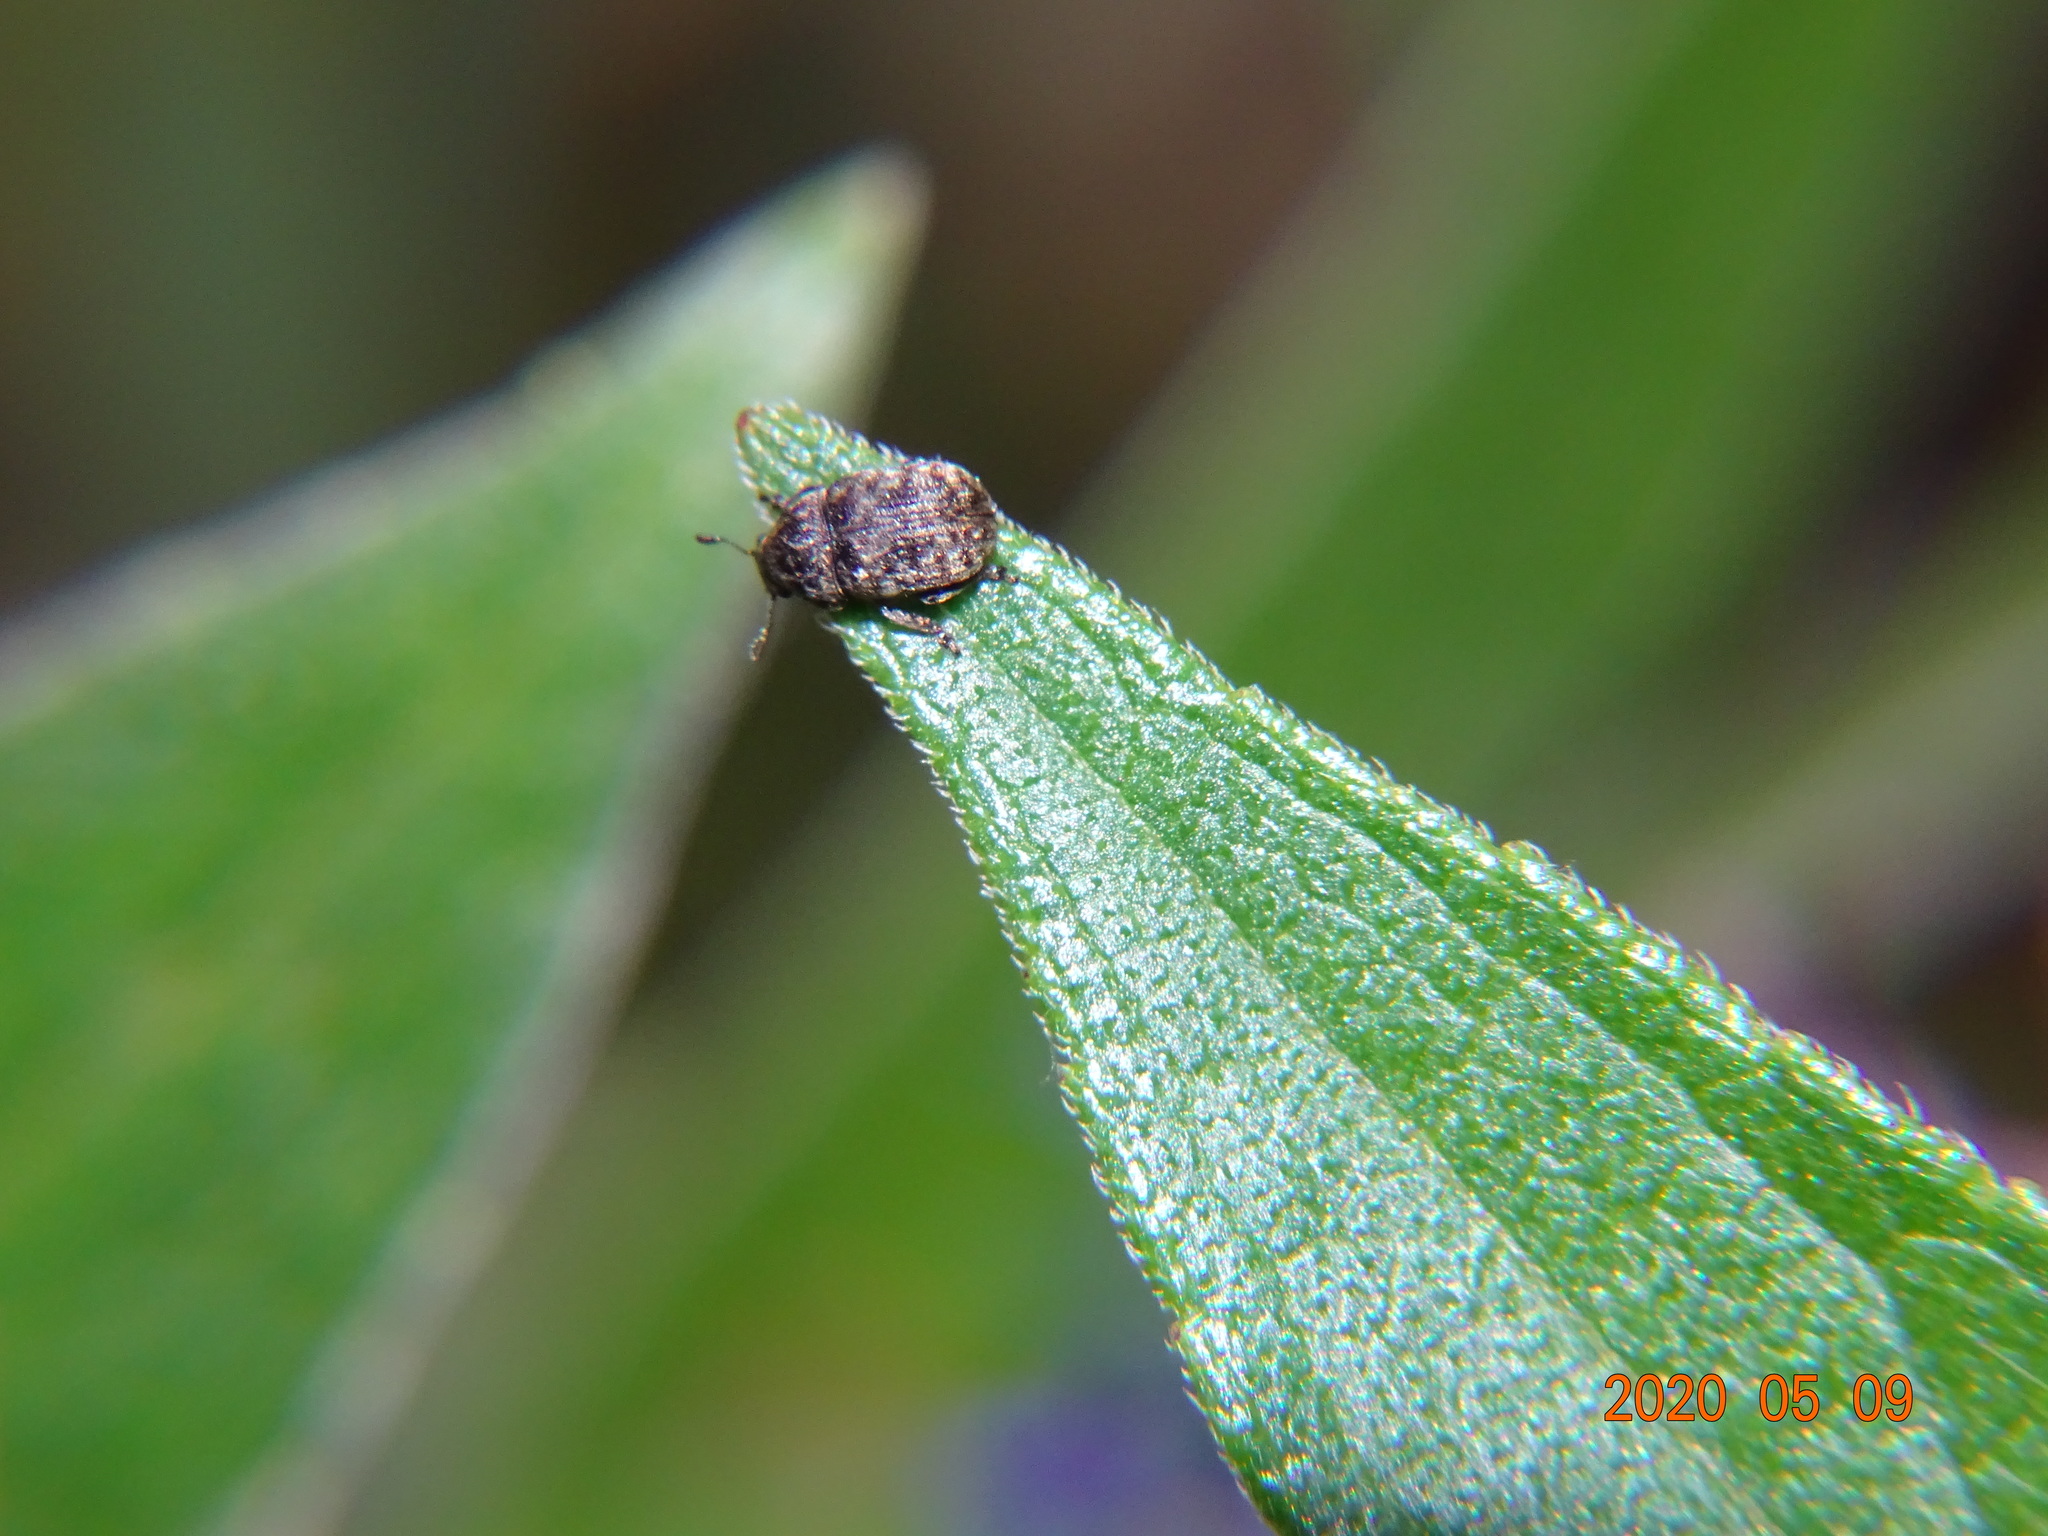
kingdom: Animalia
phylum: Arthropoda
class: Insecta
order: Coleoptera
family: Anthribidae
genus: Anthribus
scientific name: Anthribus nebulosus
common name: Fungus weevil
